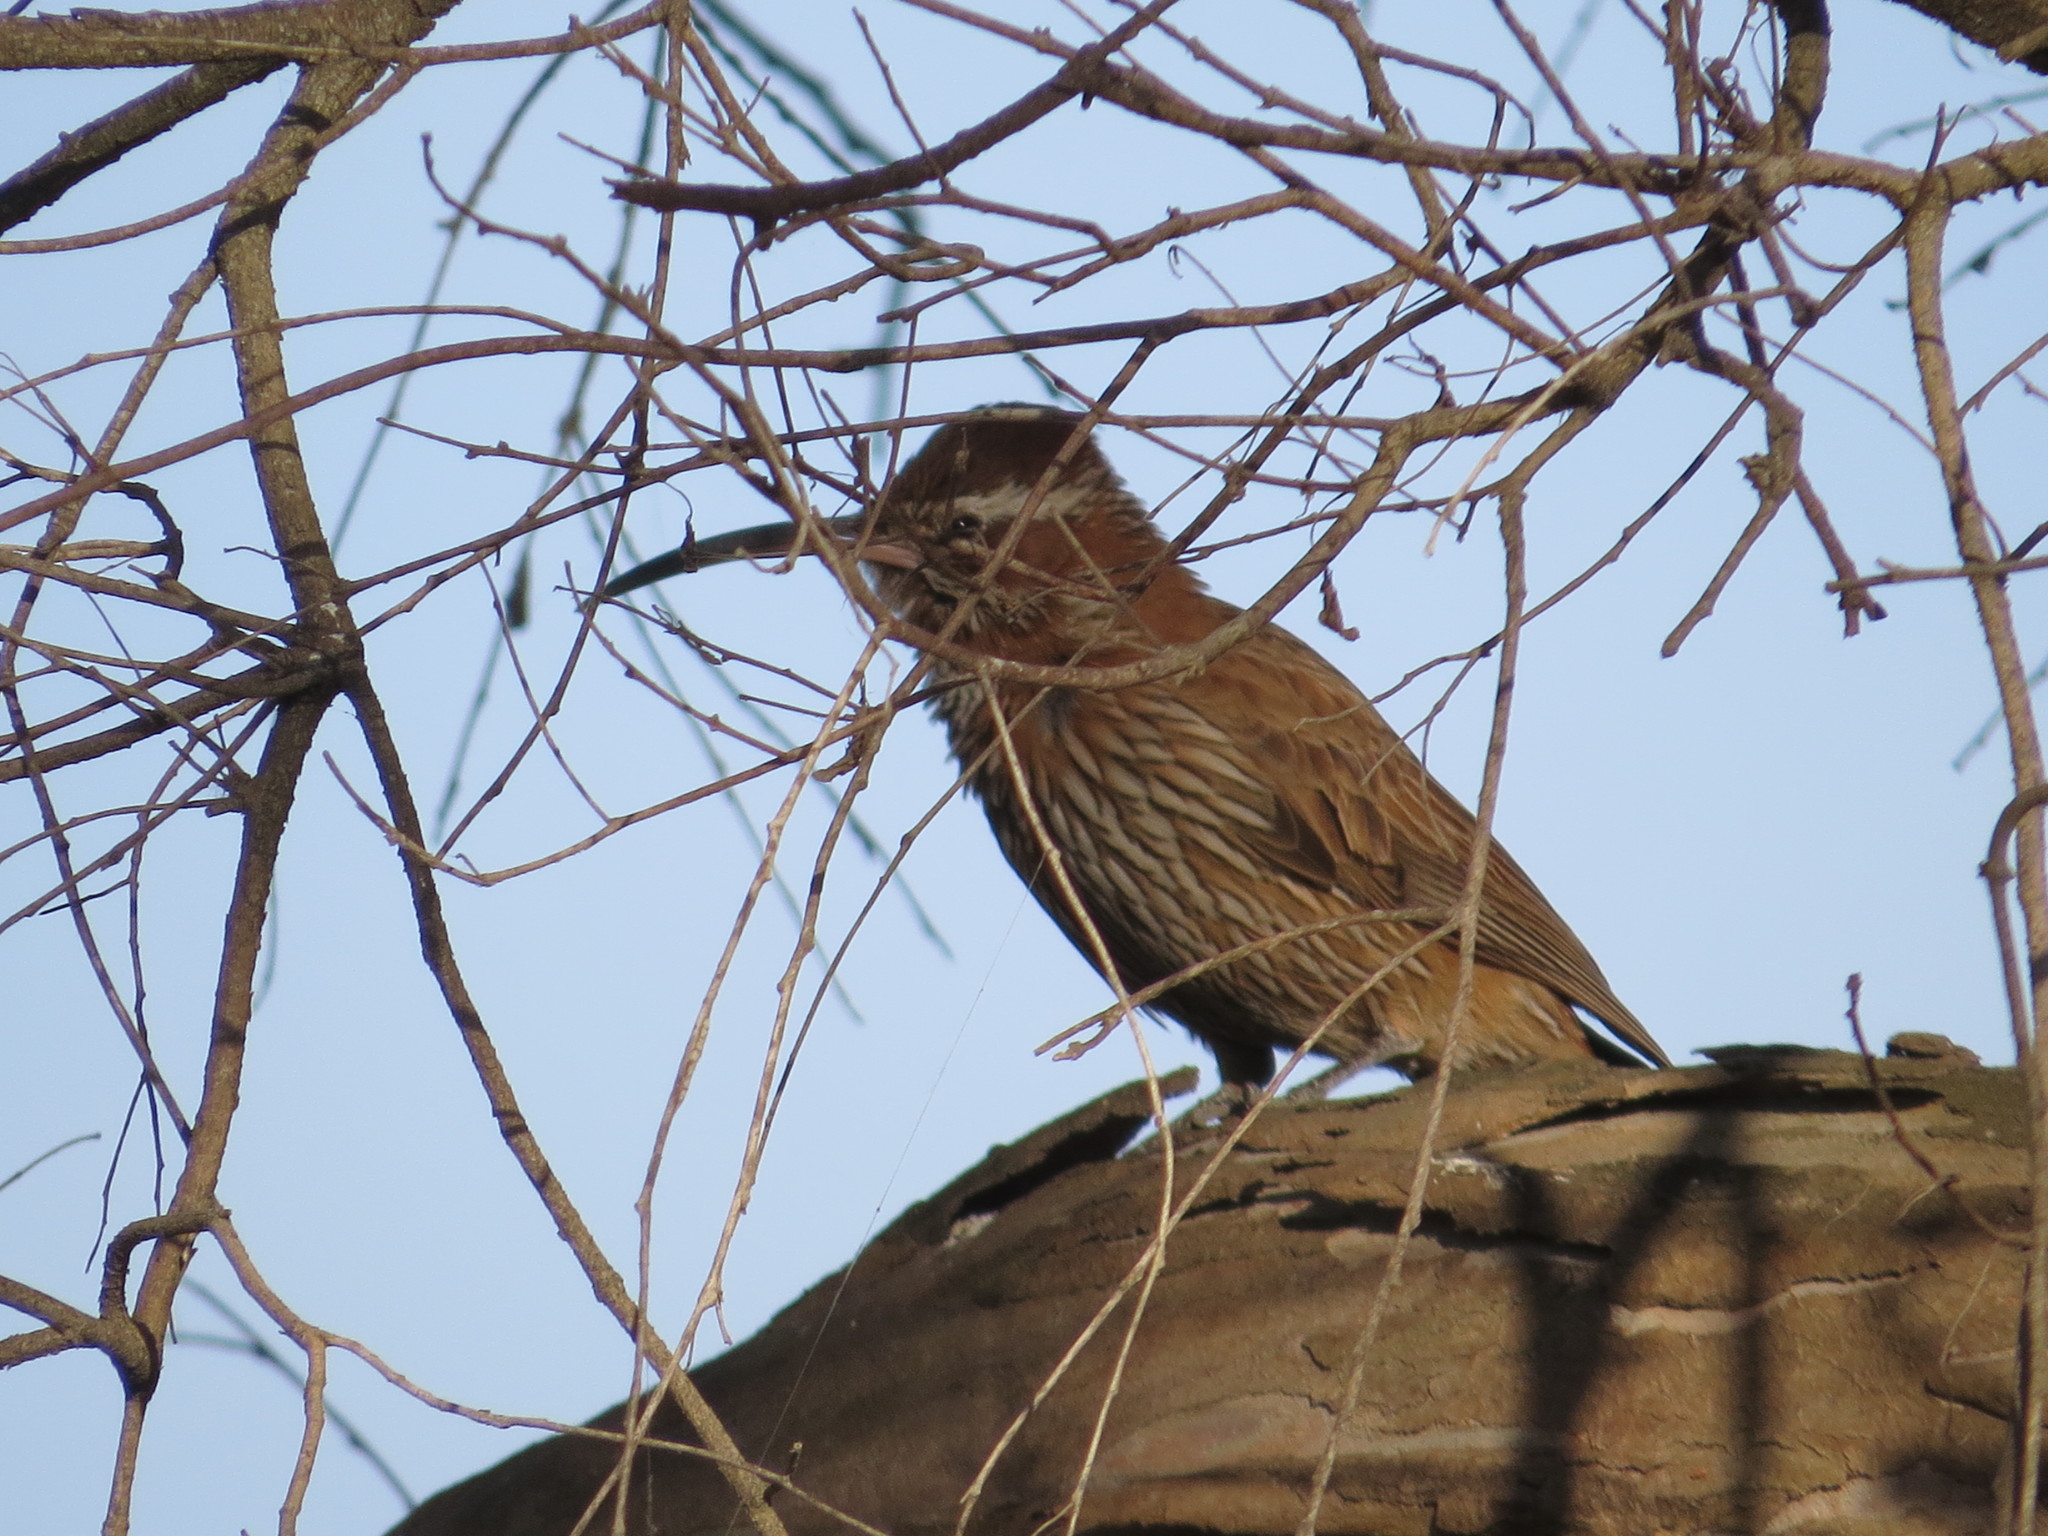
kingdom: Animalia
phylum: Chordata
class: Aves
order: Passeriformes
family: Furnariidae
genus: Drymornis
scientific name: Drymornis bridgesii
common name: Scimitar-billed woodcreeper
